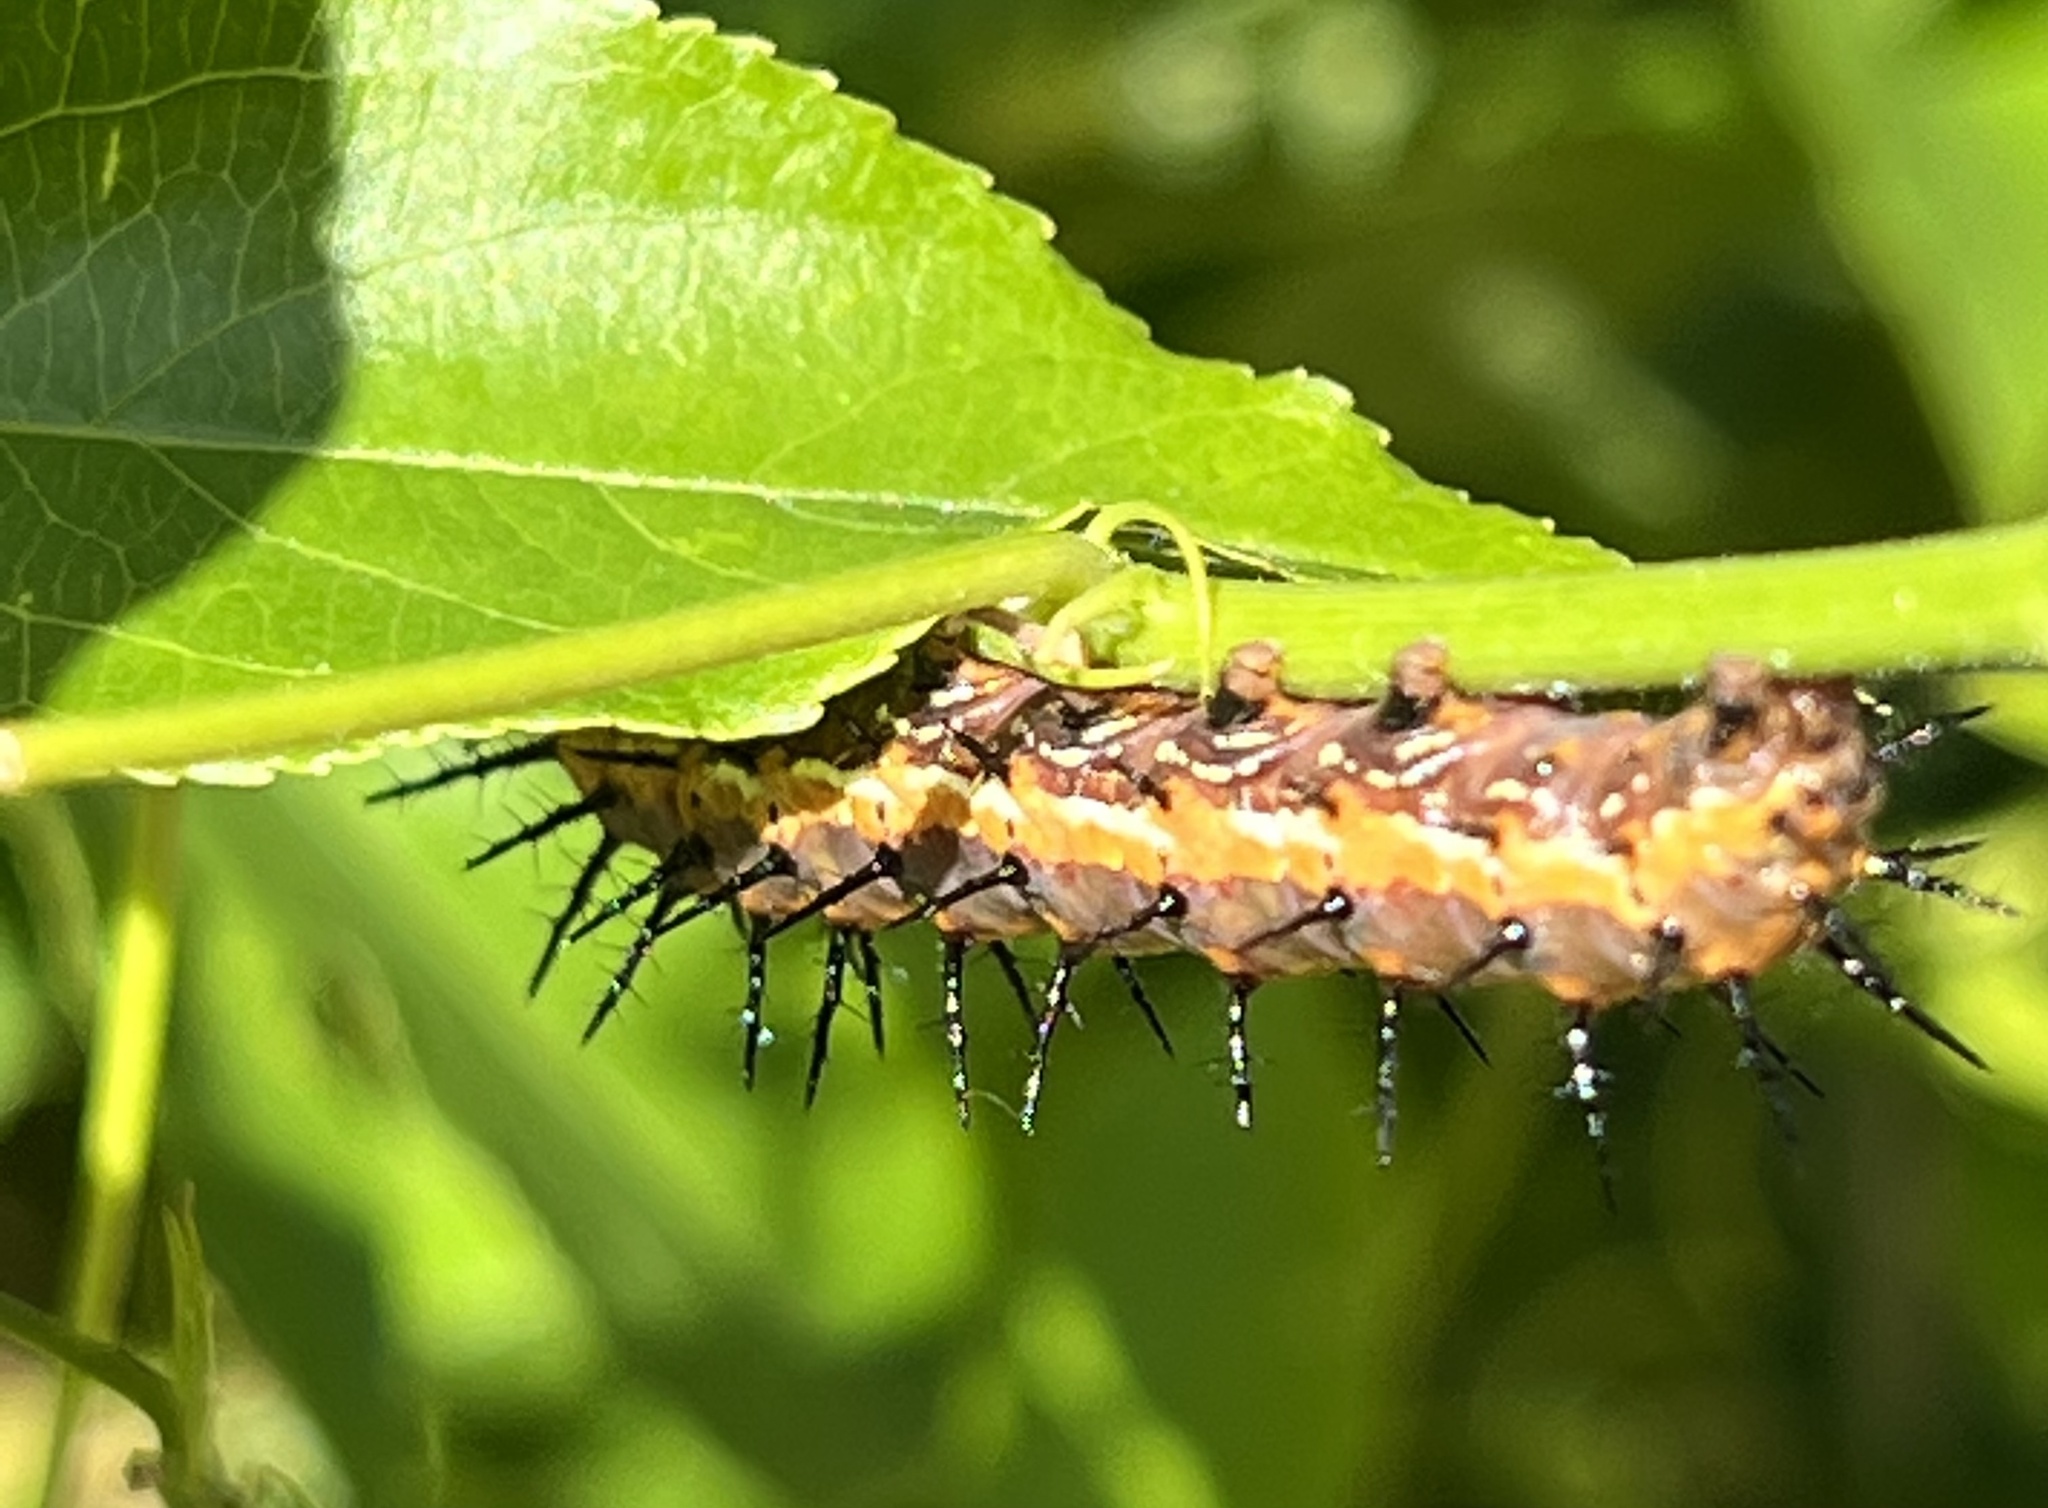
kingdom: Animalia
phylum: Arthropoda
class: Insecta
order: Lepidoptera
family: Nymphalidae
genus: Dione
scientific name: Dione vanillae
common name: Gulf fritillary
